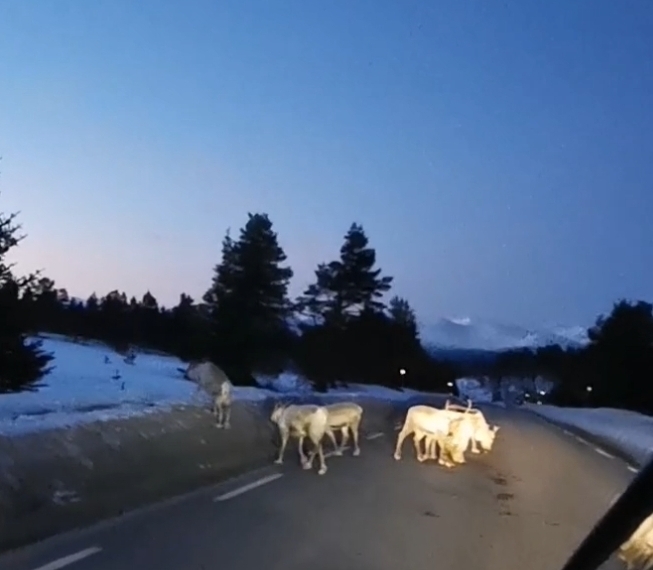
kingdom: Animalia
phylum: Chordata
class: Mammalia
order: Artiodactyla
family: Cervidae
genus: Rangifer
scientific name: Rangifer tarandus
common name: Reindeer
